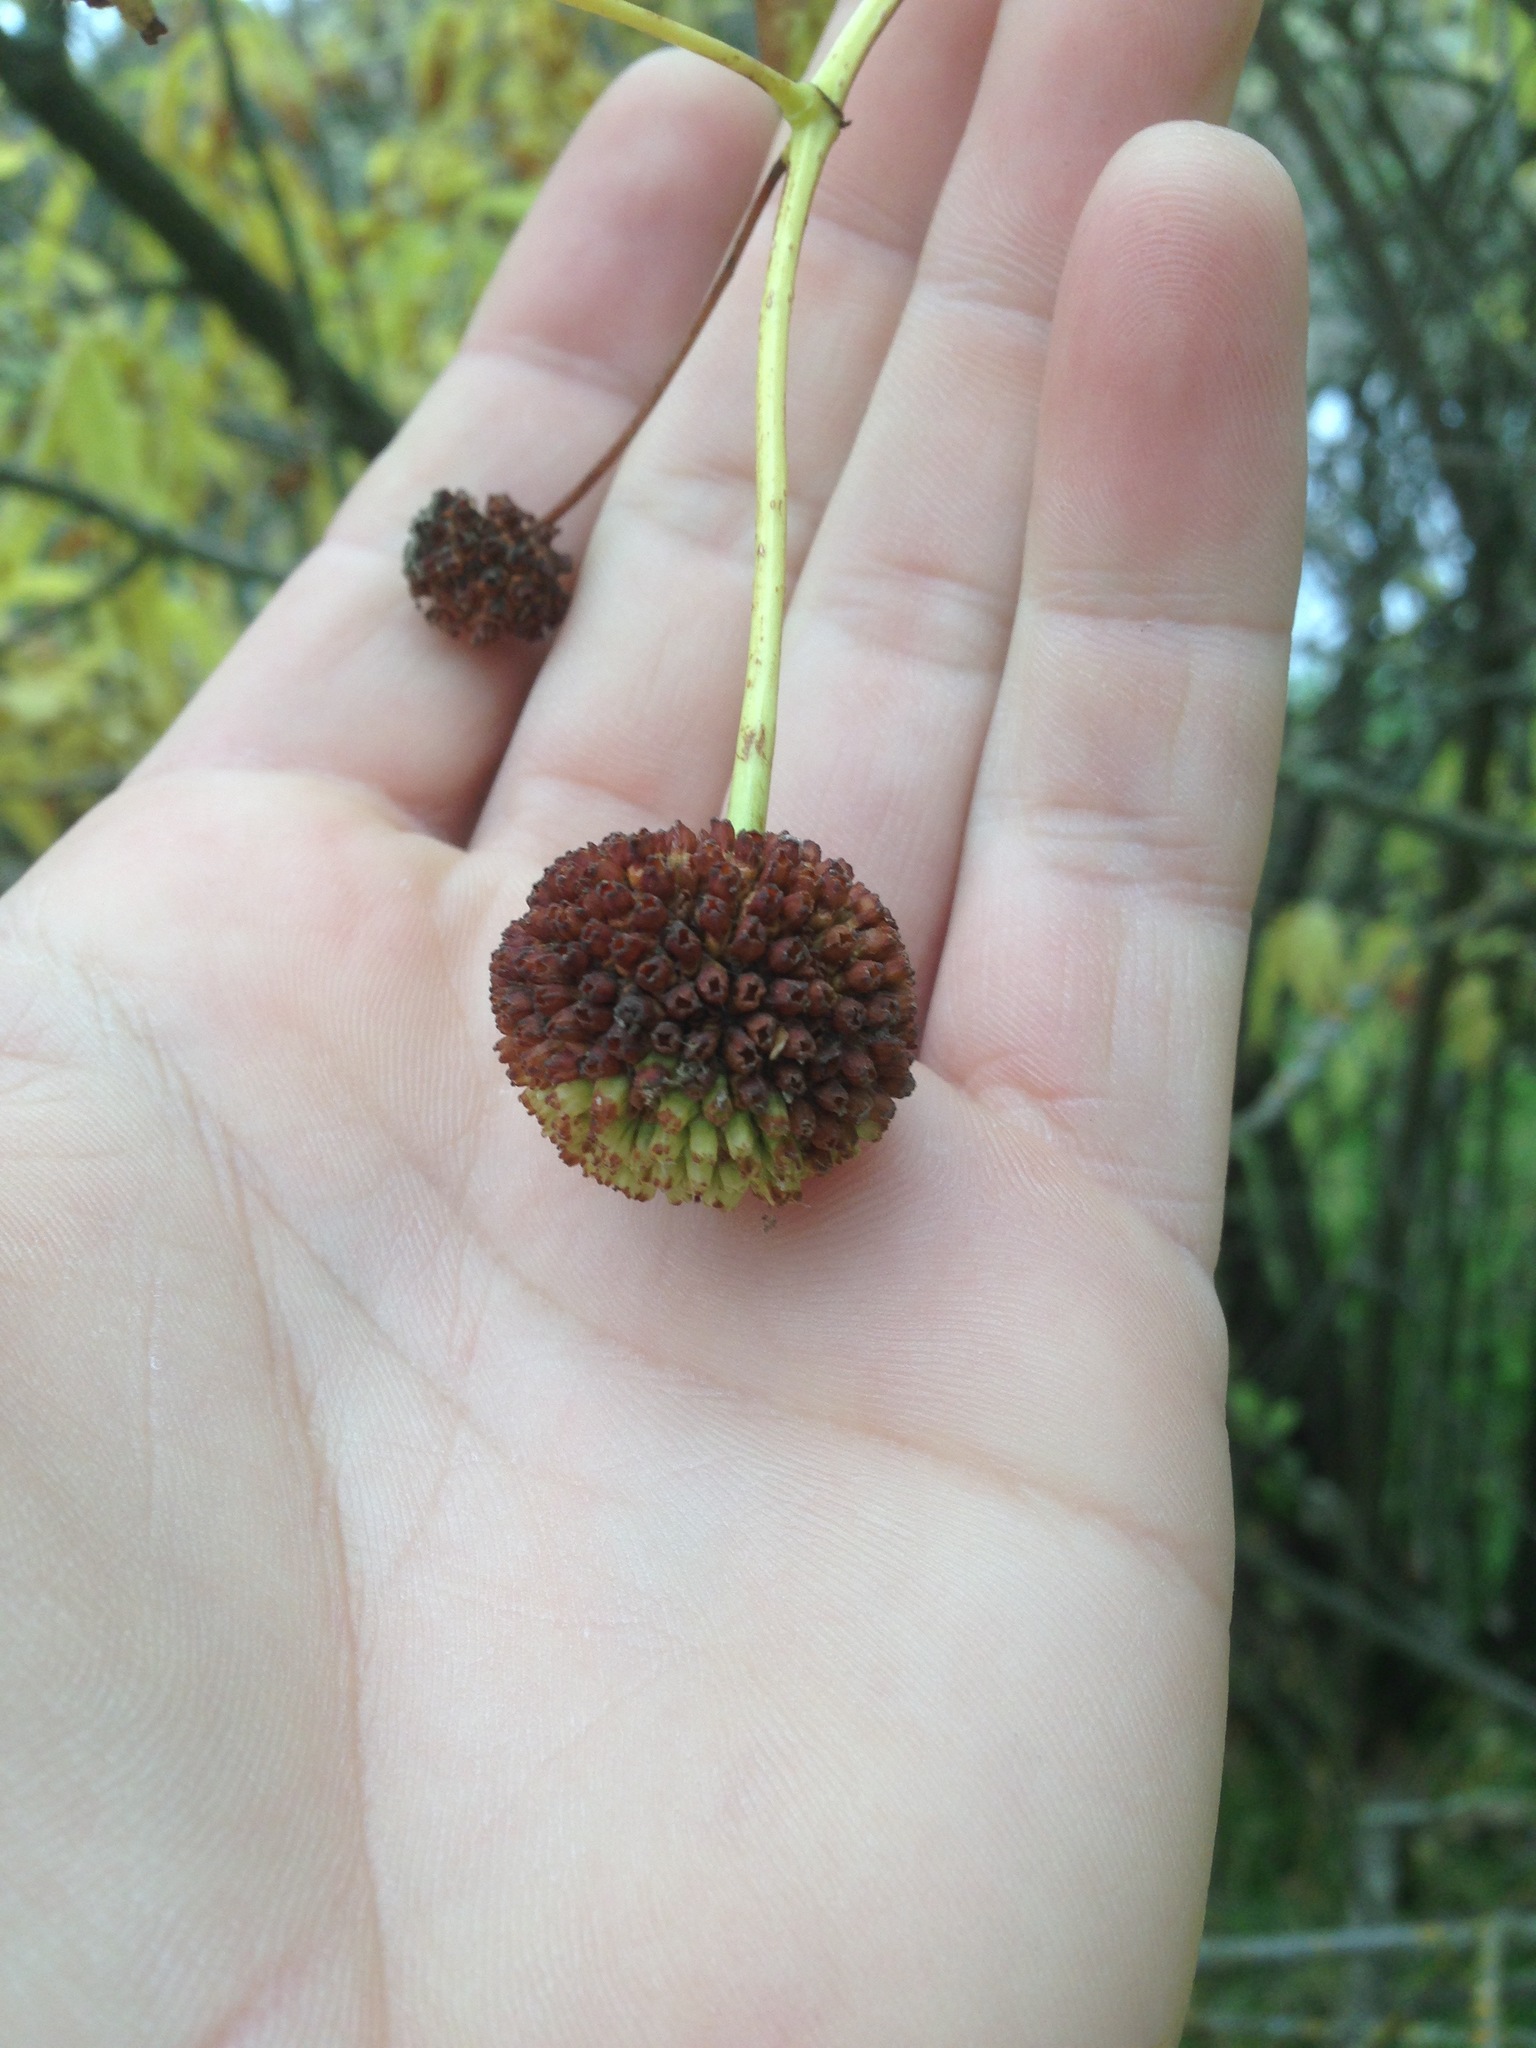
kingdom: Plantae
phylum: Tracheophyta
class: Magnoliopsida
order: Gentianales
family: Rubiaceae
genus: Cephalanthus
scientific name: Cephalanthus occidentalis
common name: Button-willow
